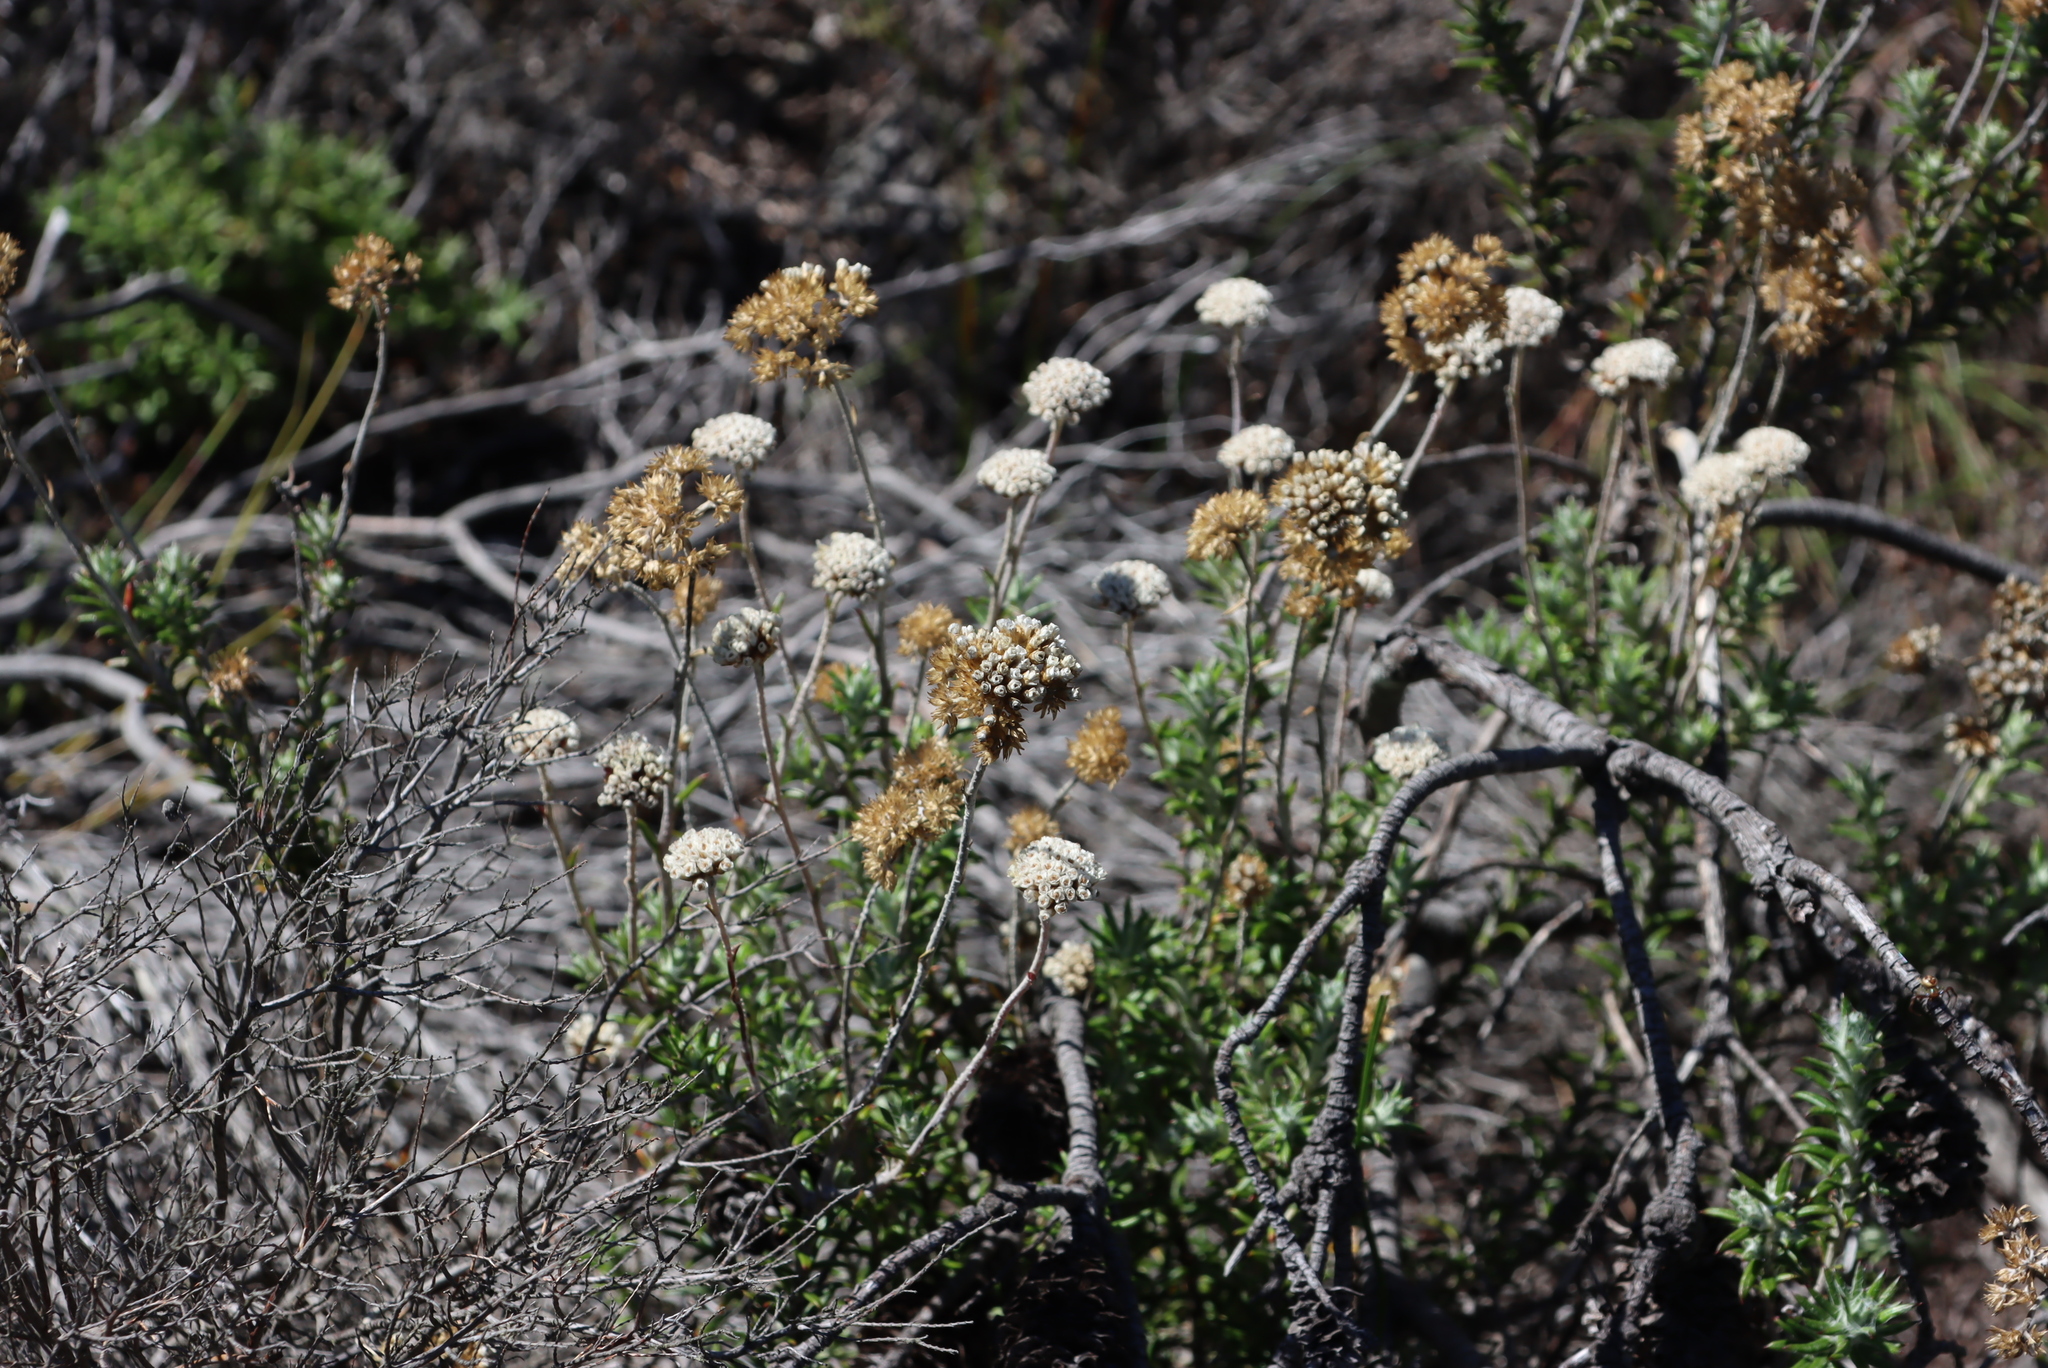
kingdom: Plantae
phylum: Tracheophyta
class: Magnoliopsida
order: Asterales
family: Asteraceae
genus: Anaxeton
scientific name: Anaxeton arborescens
